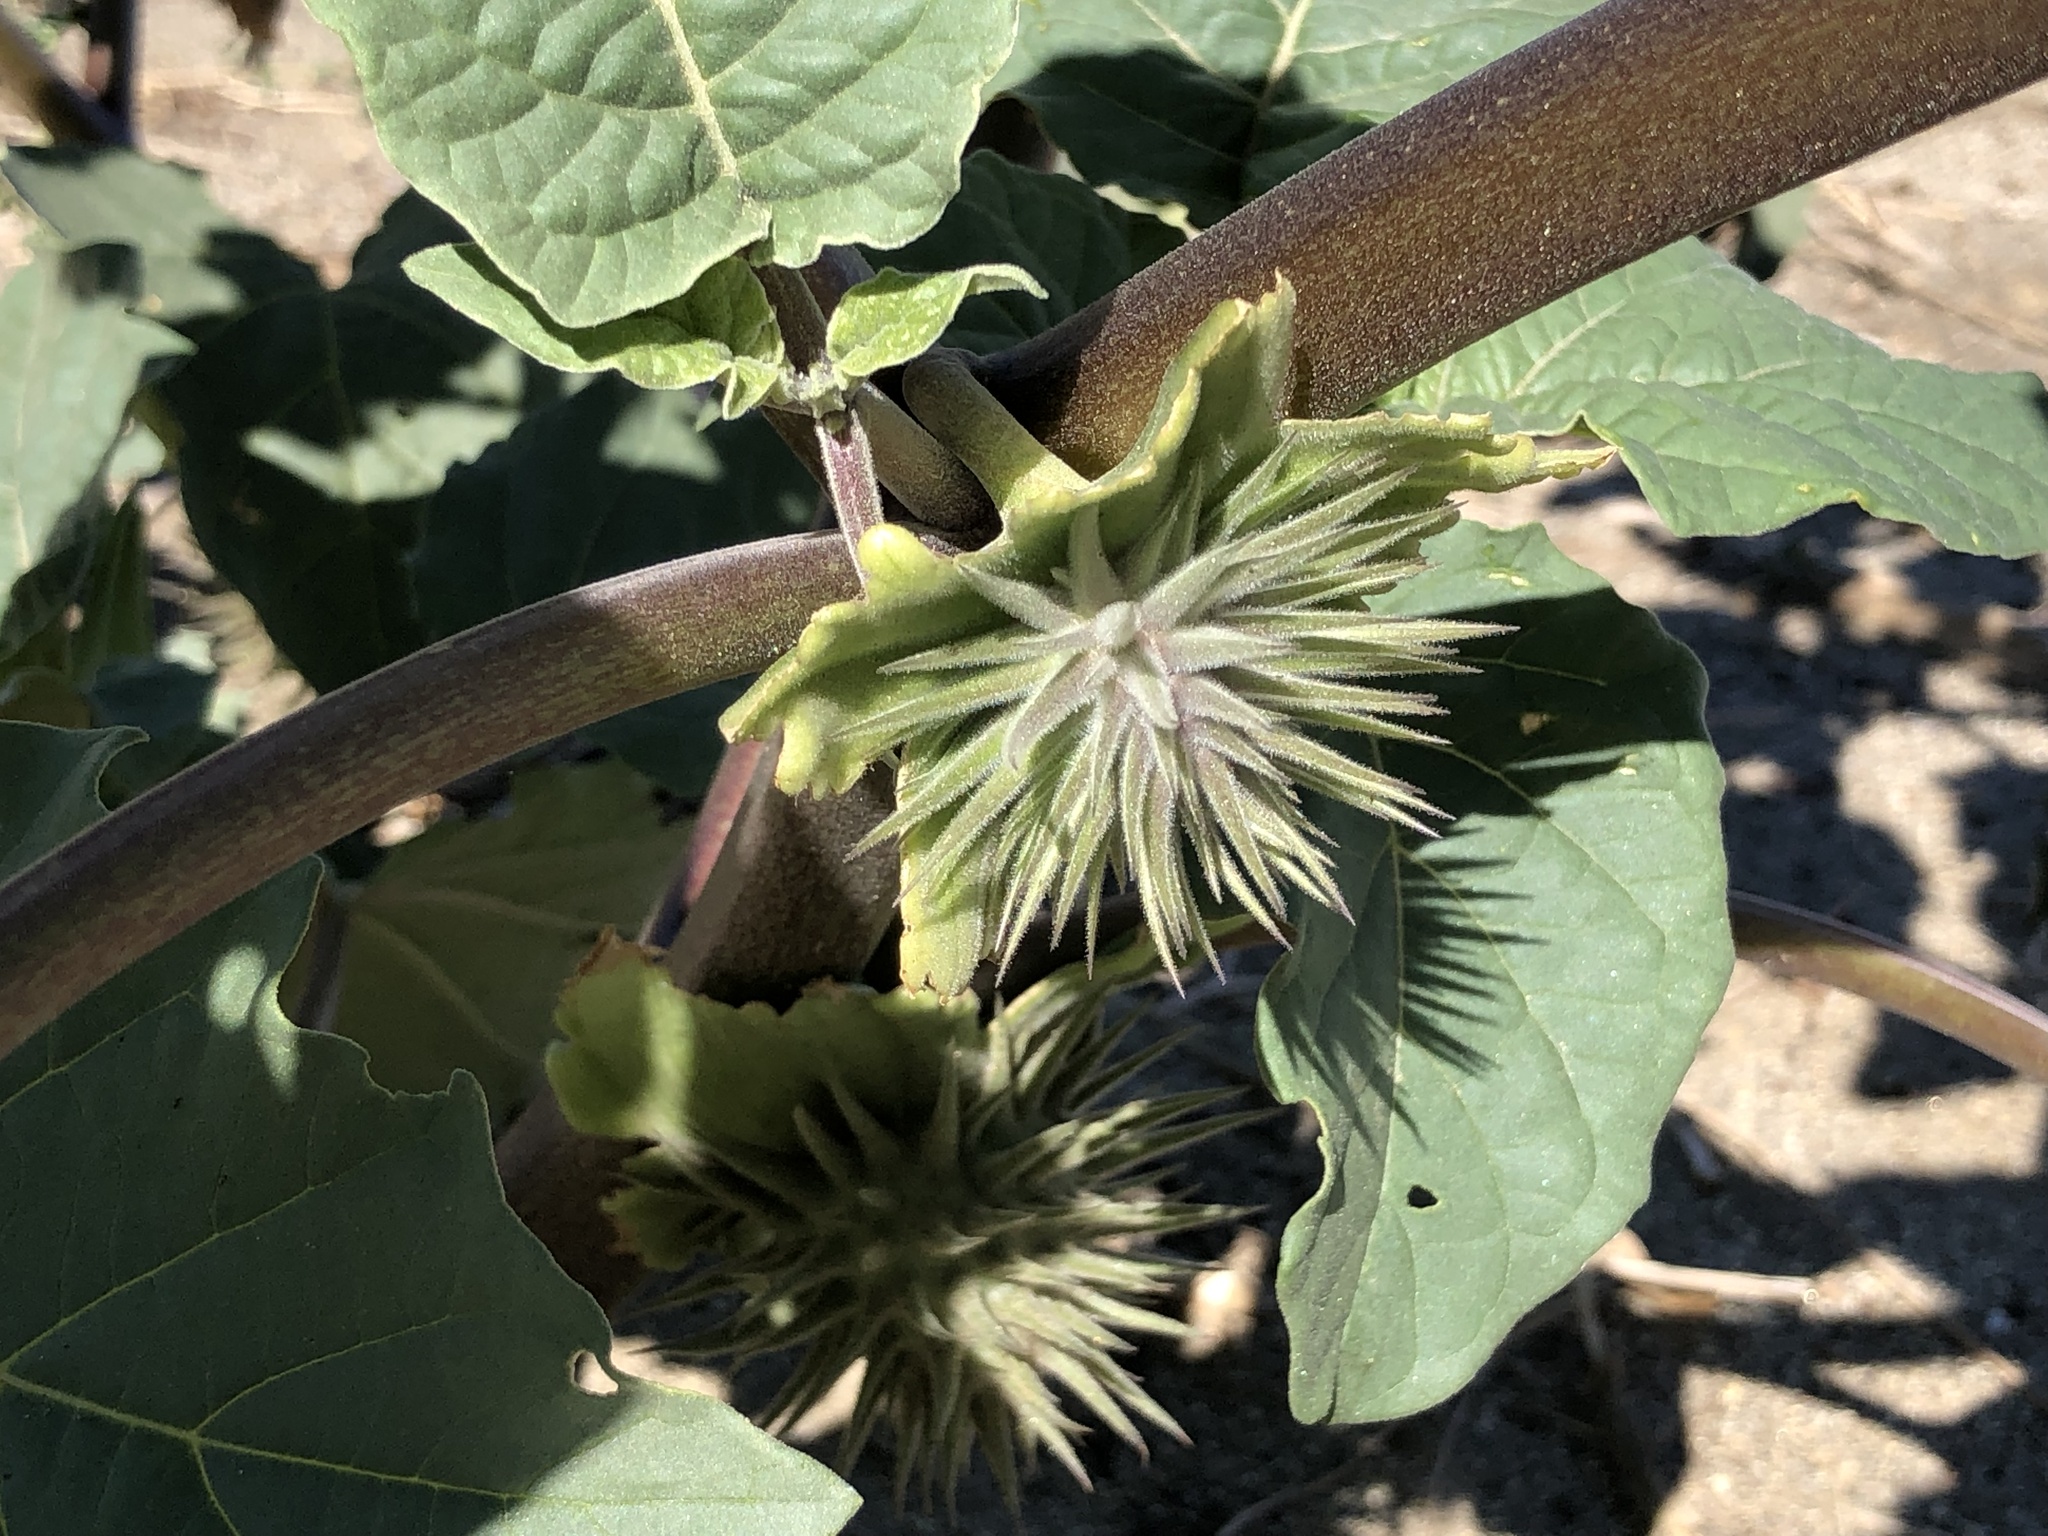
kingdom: Plantae
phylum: Tracheophyta
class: Magnoliopsida
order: Solanales
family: Solanaceae
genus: Datura
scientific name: Datura discolor
